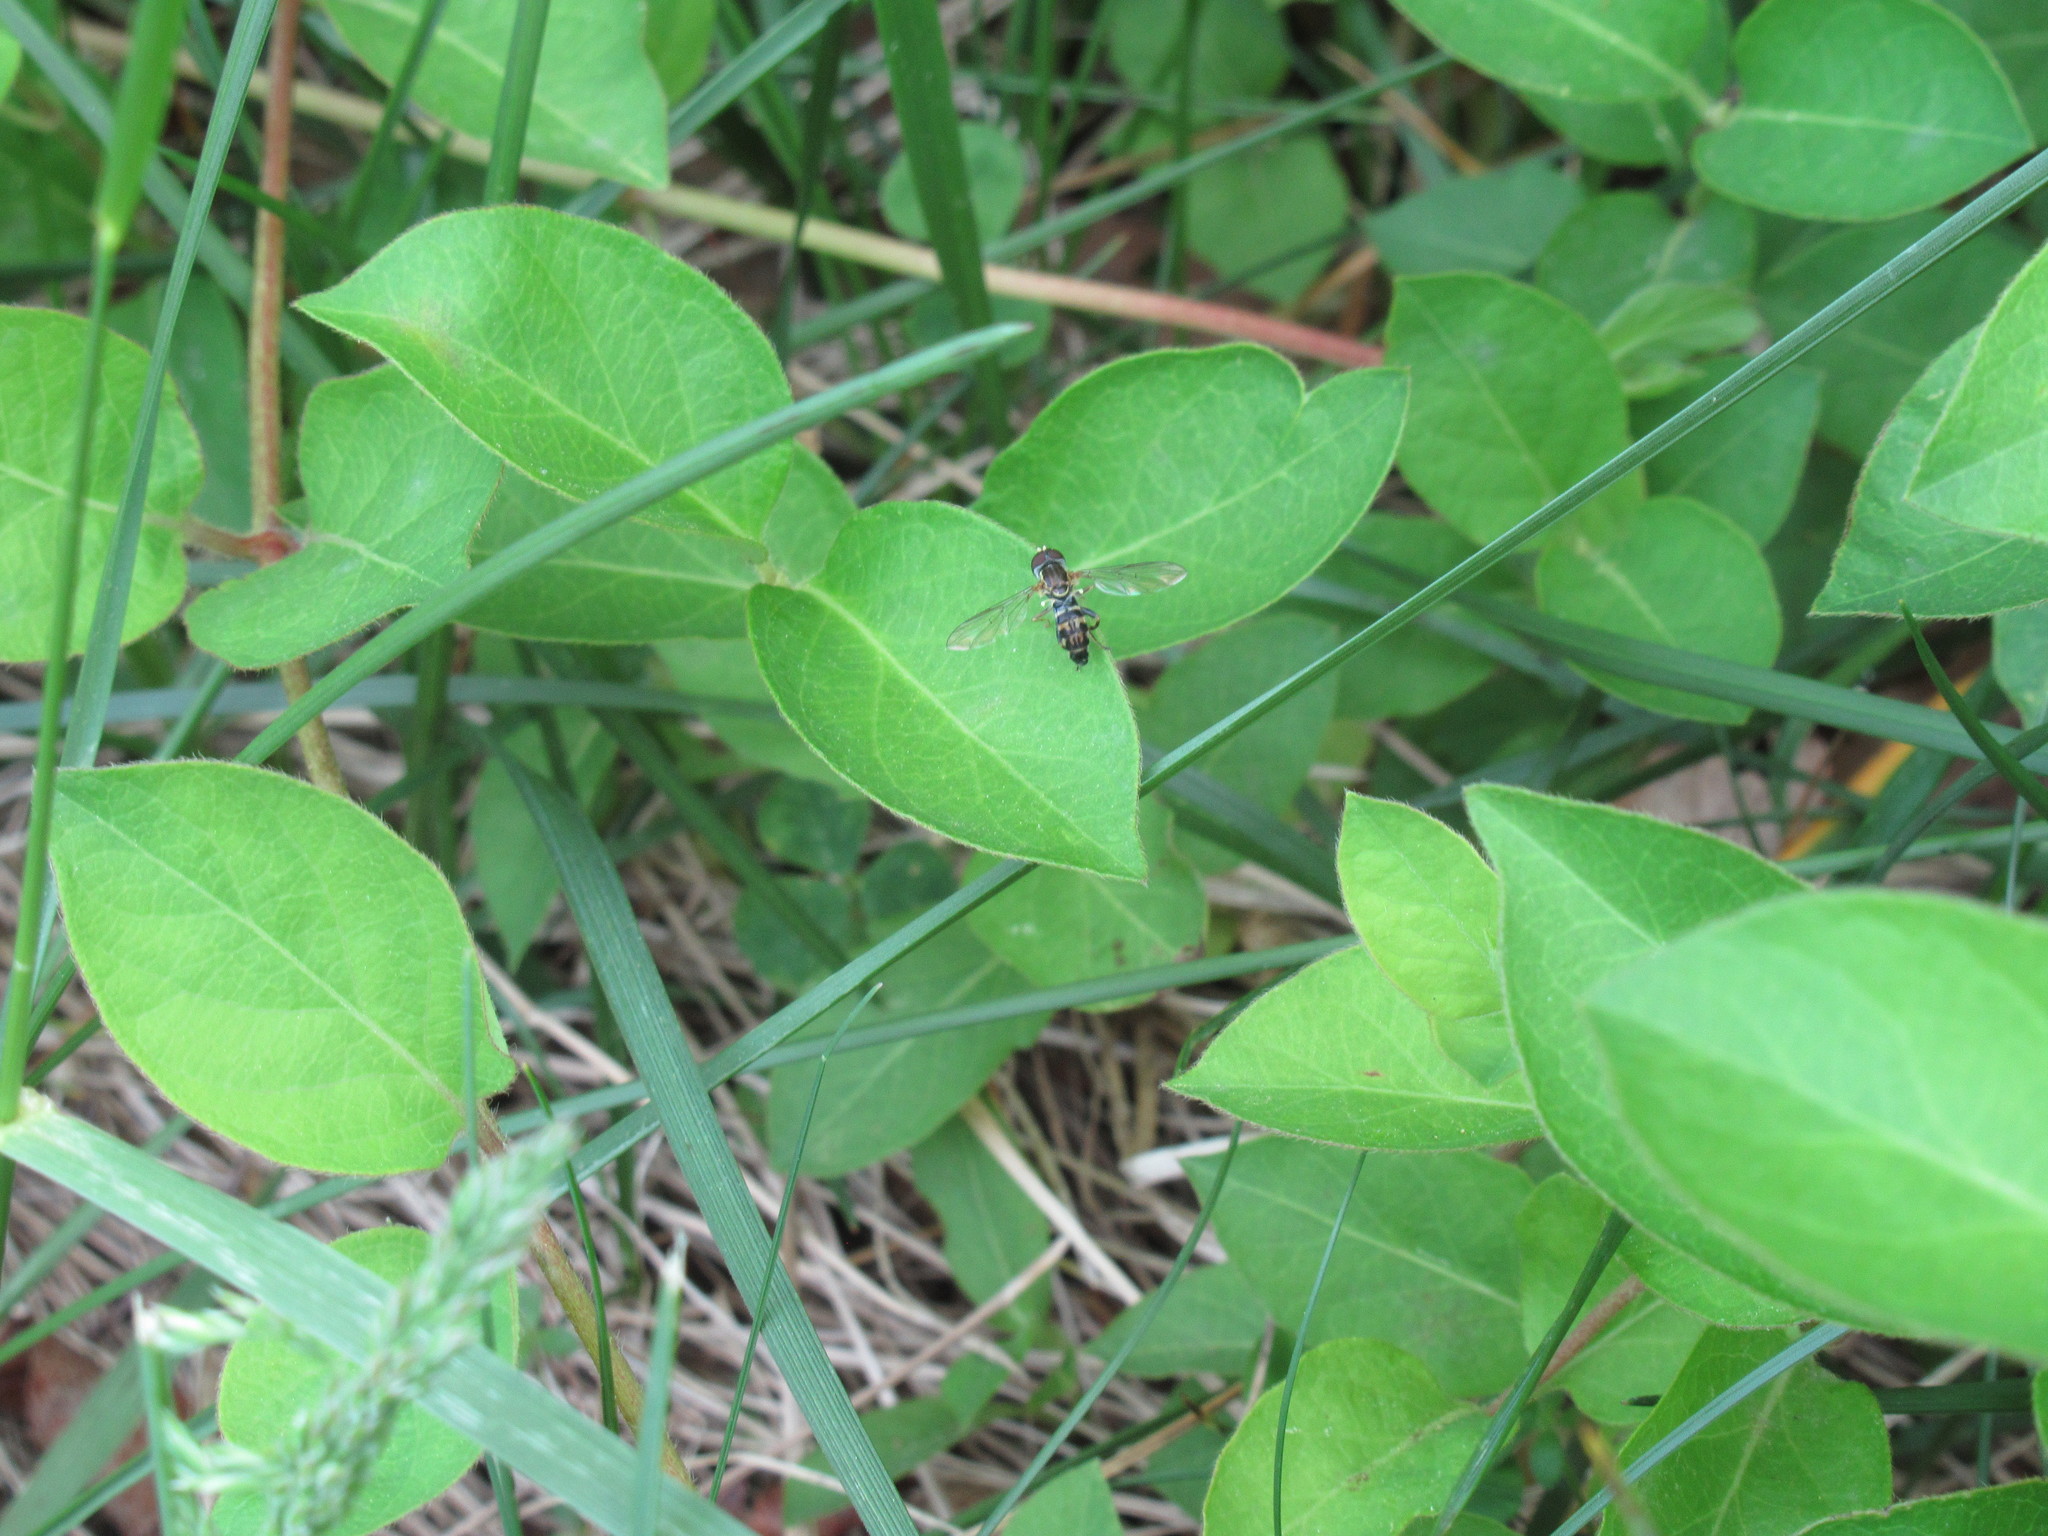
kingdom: Animalia
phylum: Arthropoda
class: Insecta
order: Diptera
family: Syrphidae
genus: Toxomerus
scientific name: Toxomerus geminatus
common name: Eastern calligrapher
